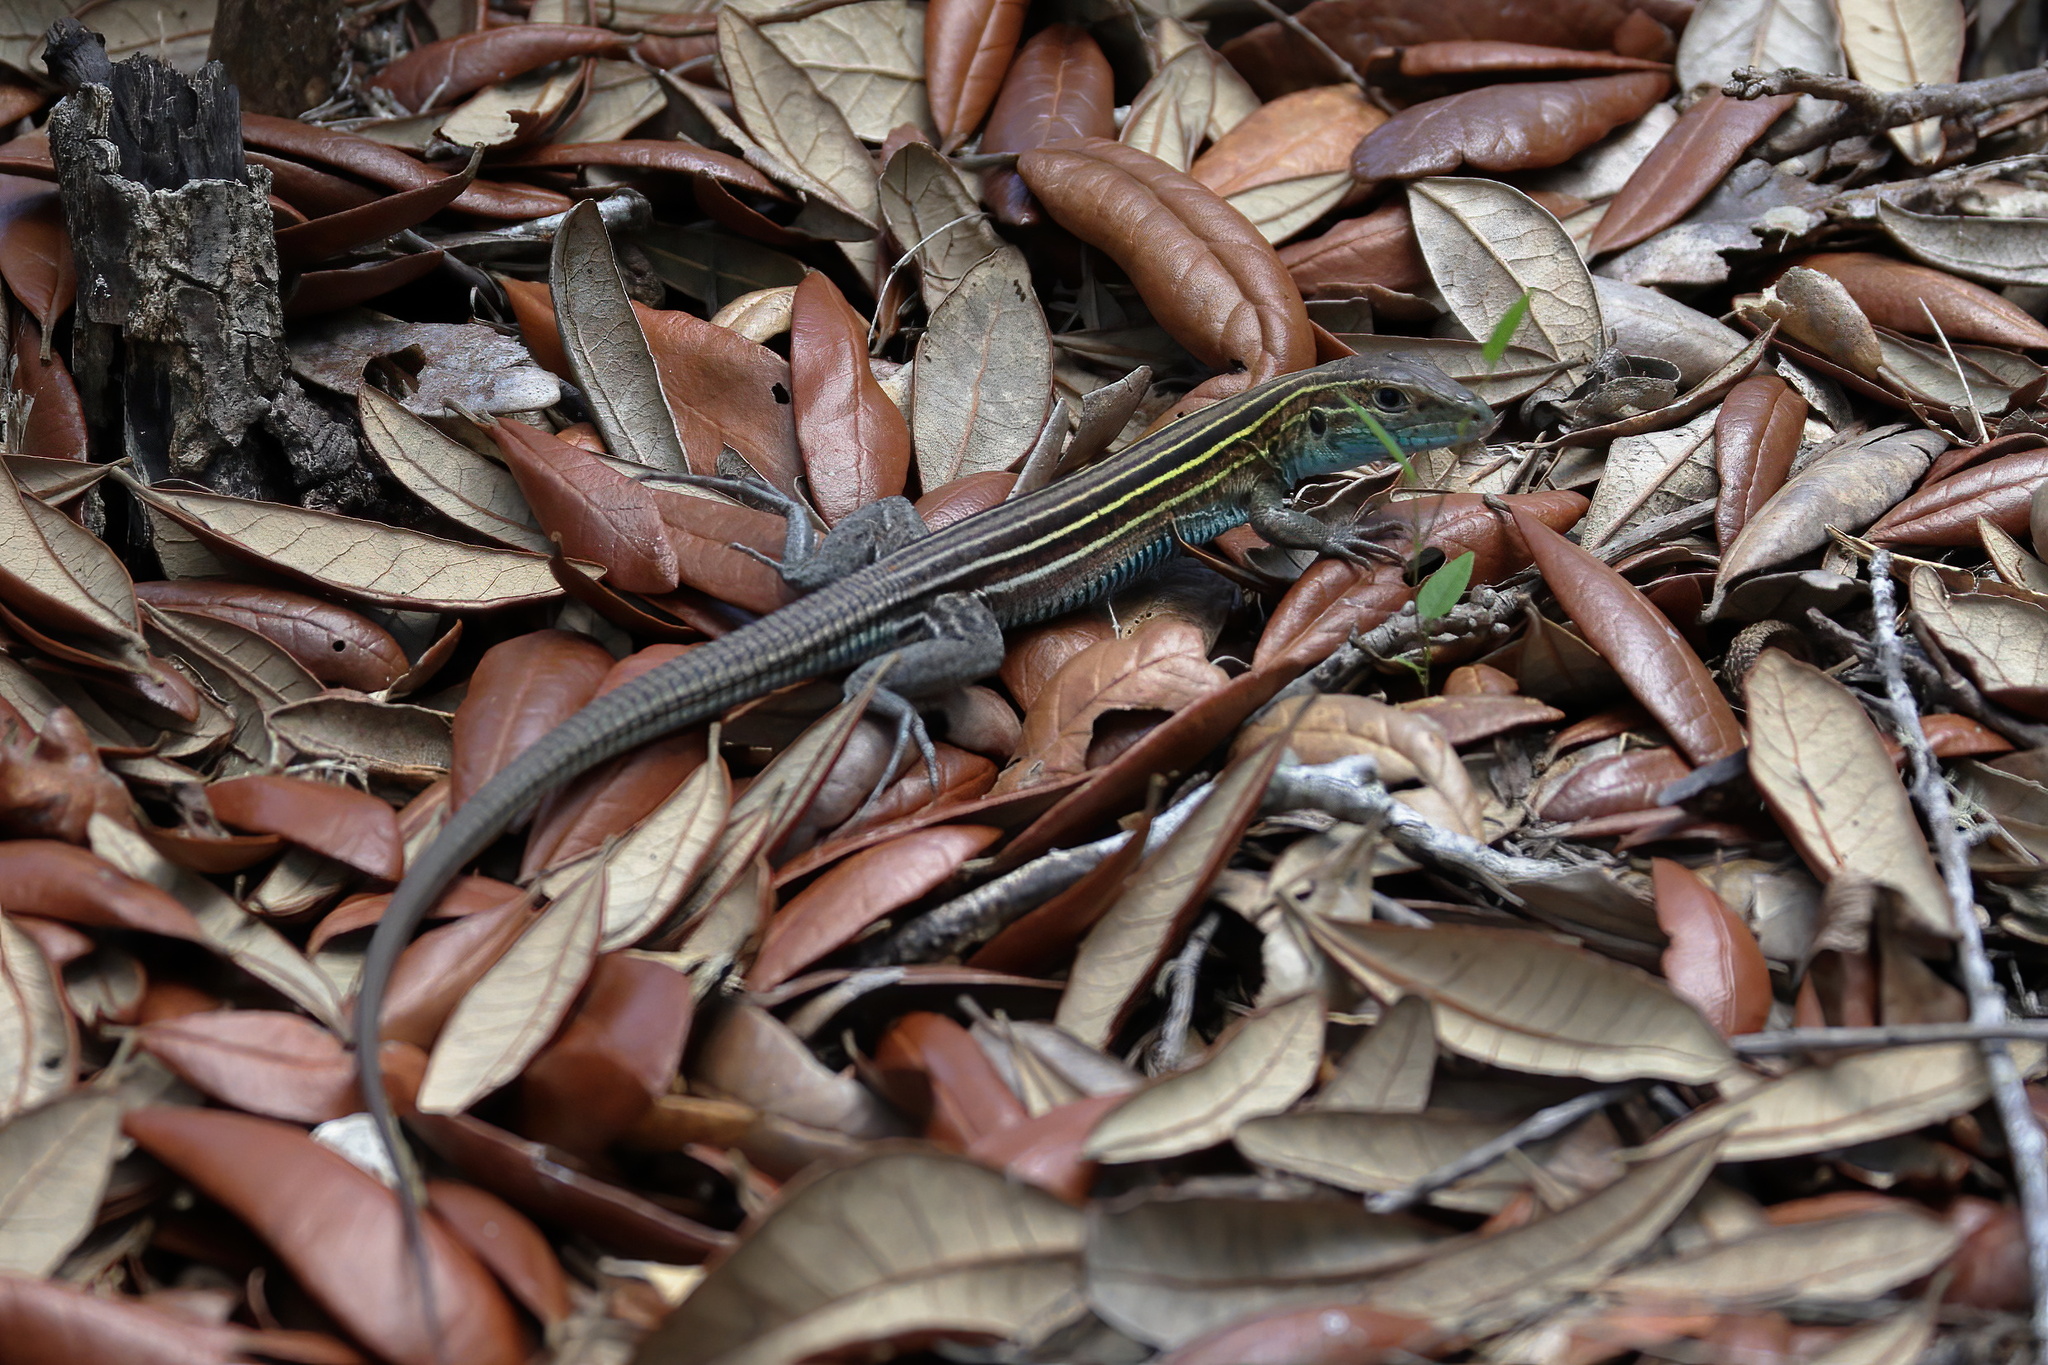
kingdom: Animalia
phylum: Chordata
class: Squamata
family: Teiidae
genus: Aspidoscelis
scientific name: Aspidoscelis sexlineatus
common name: Six-lined racerunner
